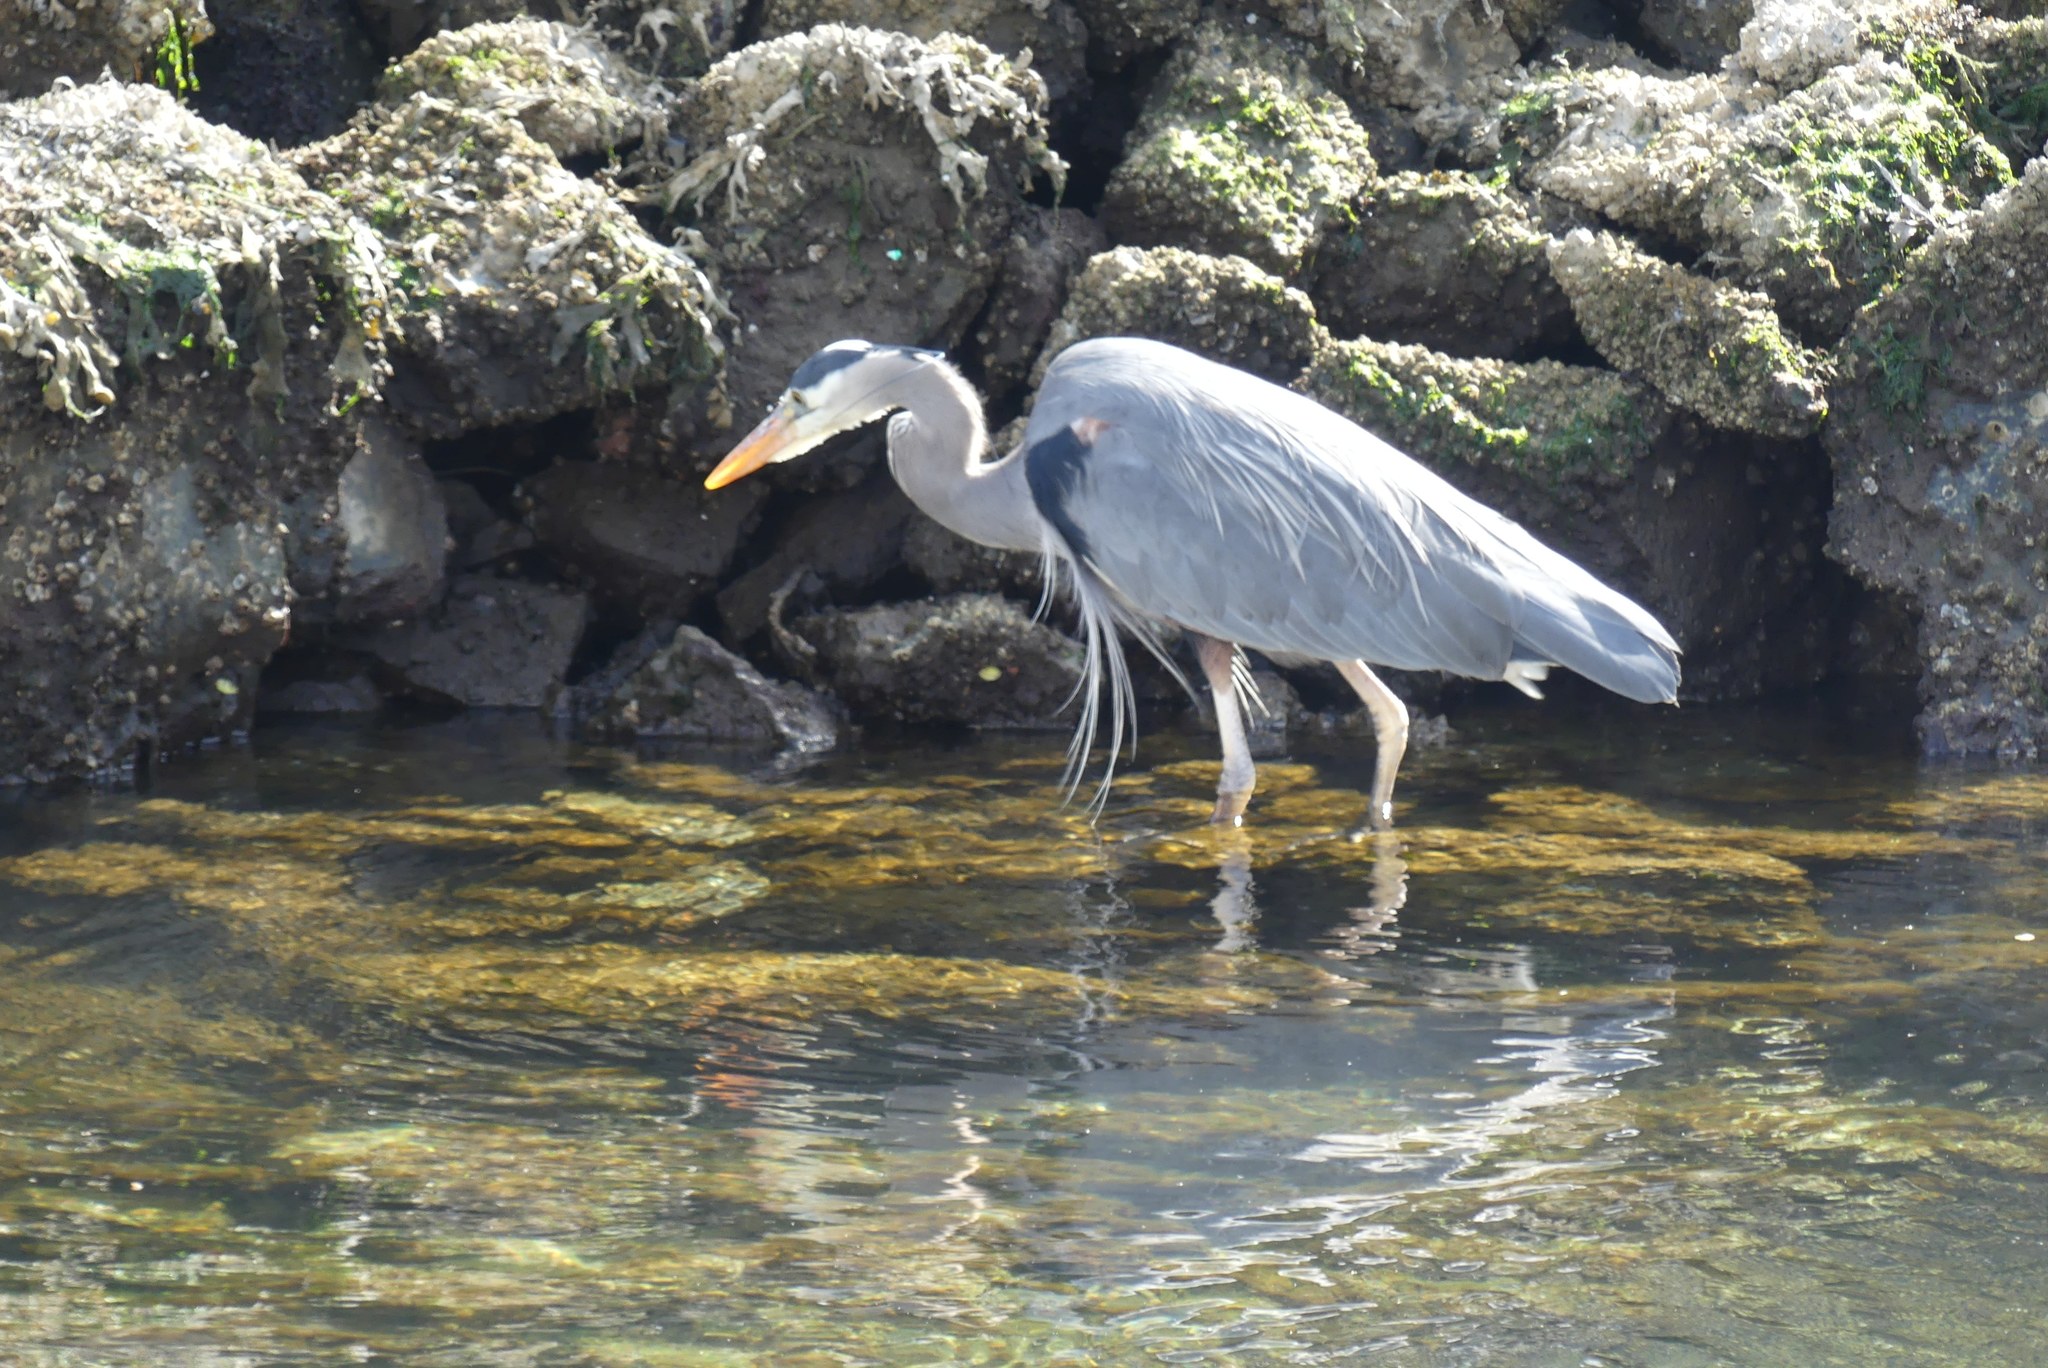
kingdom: Animalia
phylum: Chordata
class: Aves
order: Pelecaniformes
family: Ardeidae
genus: Ardea
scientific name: Ardea herodias
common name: Great blue heron
